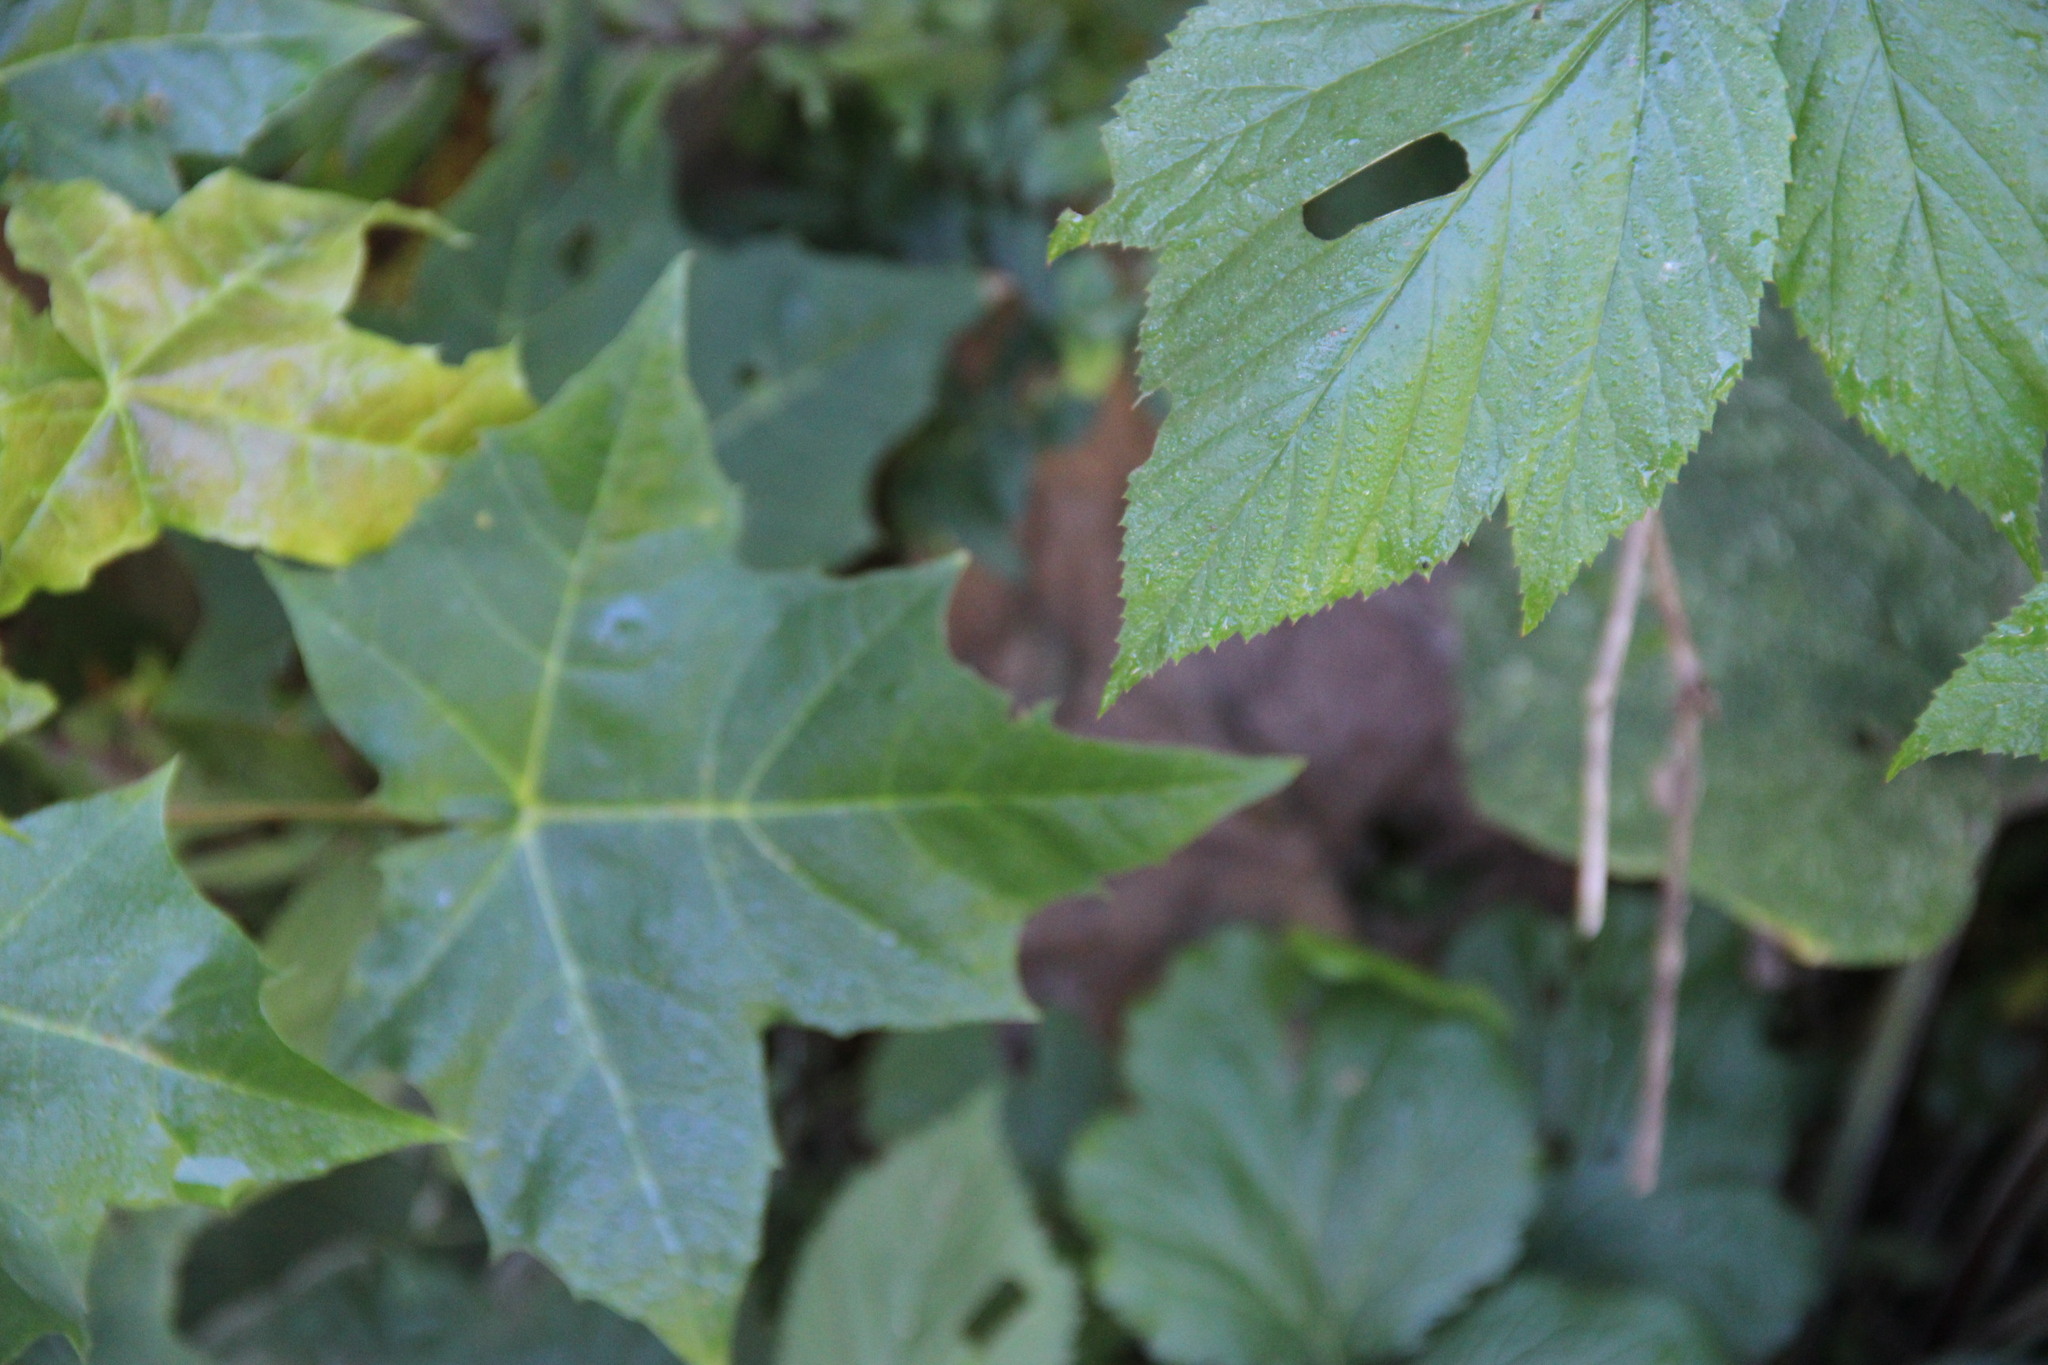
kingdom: Plantae
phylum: Tracheophyta
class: Magnoliopsida
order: Sapindales
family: Sapindaceae
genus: Acer
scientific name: Acer platanoides
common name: Norway maple
